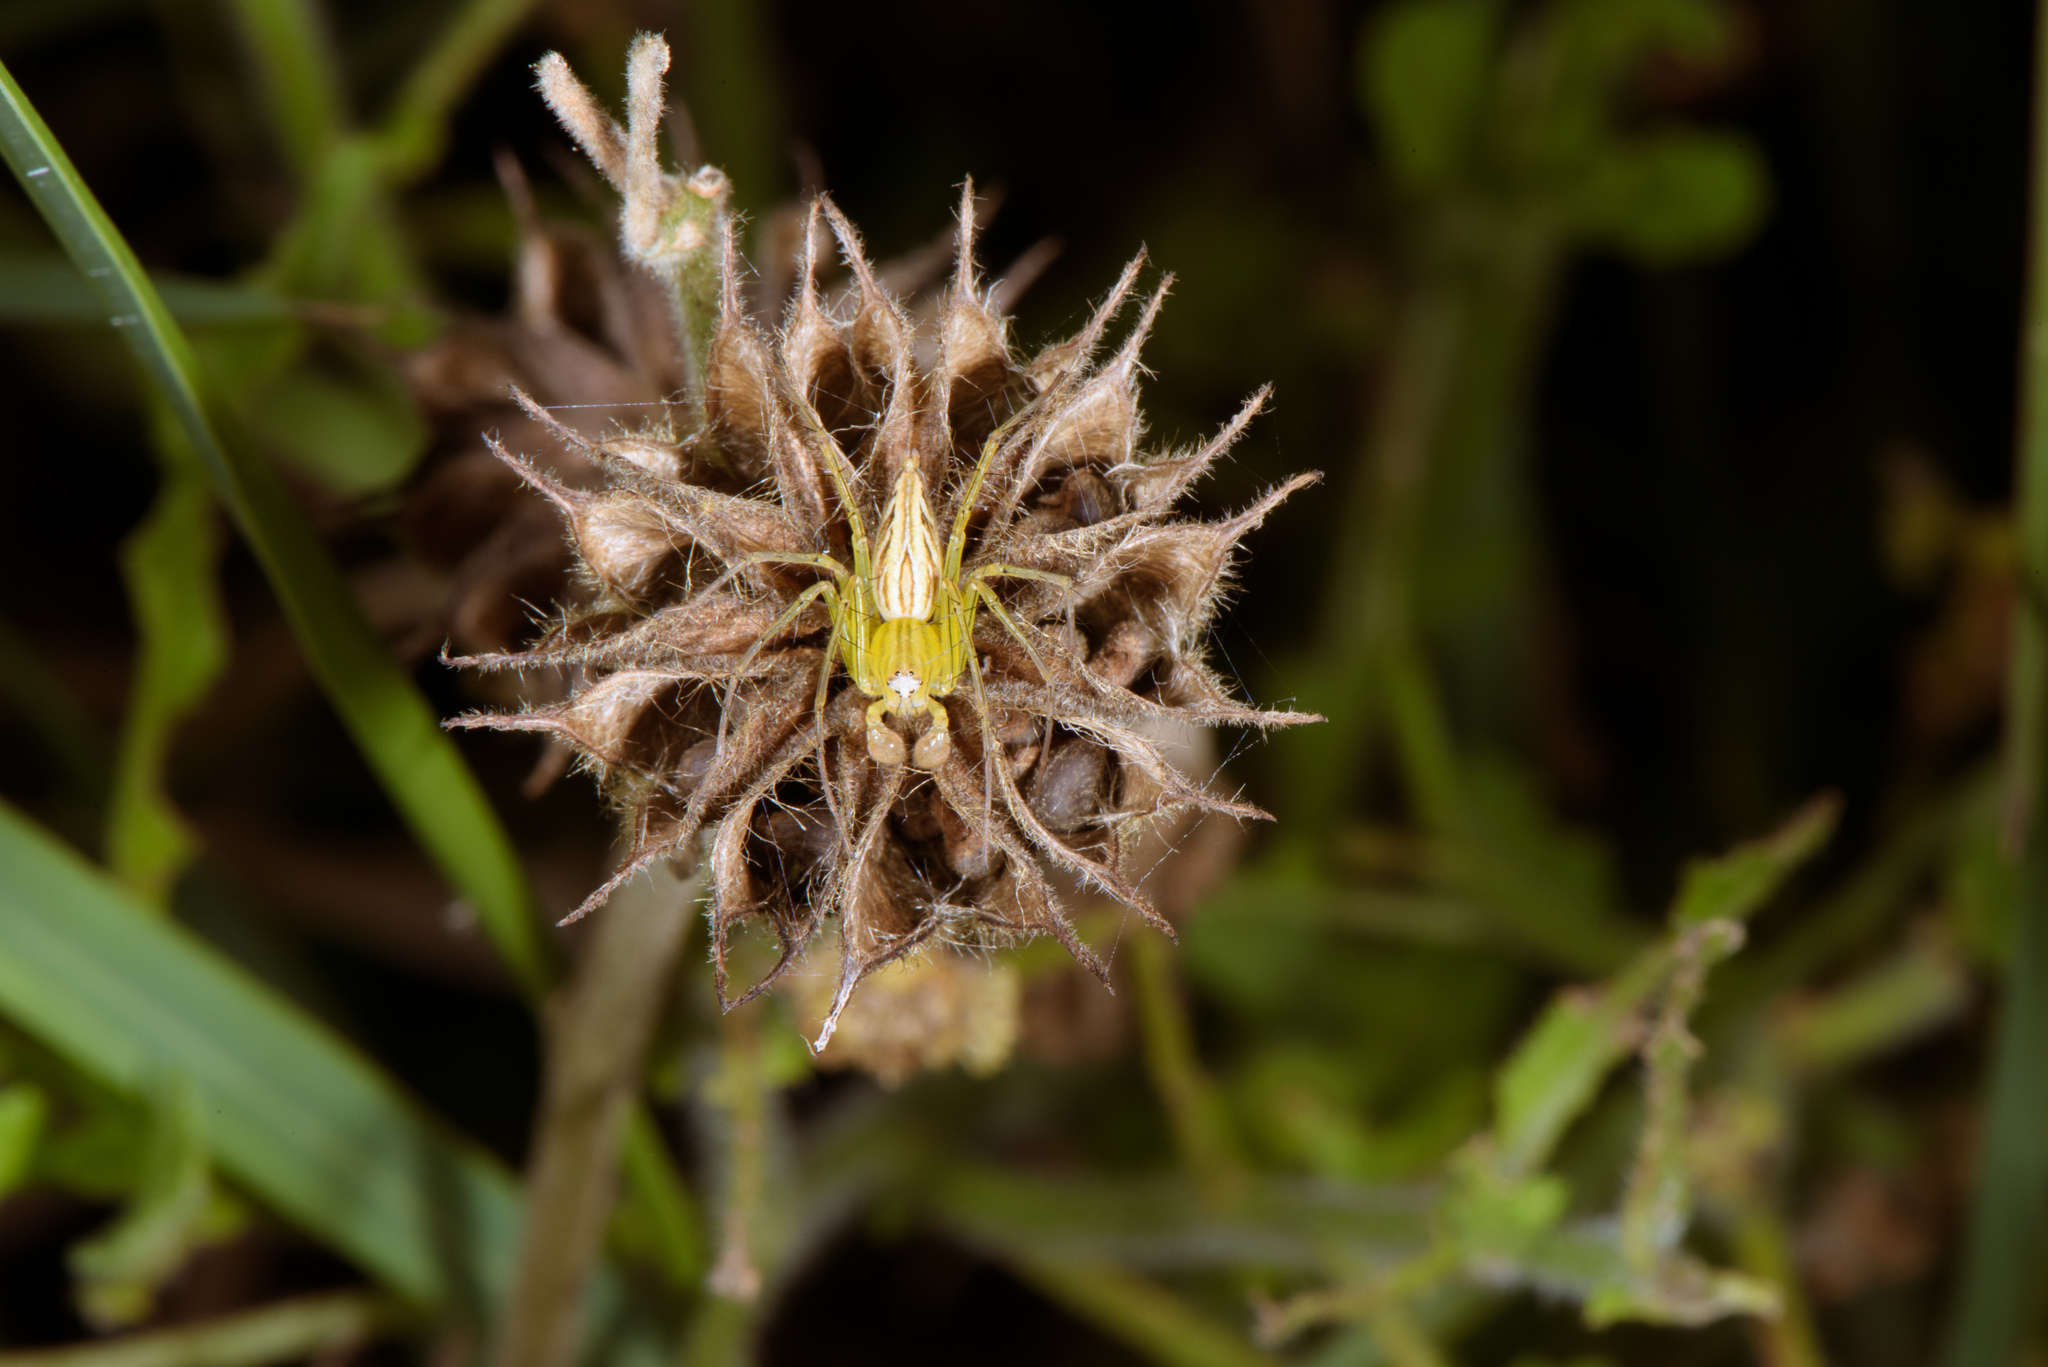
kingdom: Animalia
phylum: Arthropoda
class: Arachnida
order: Araneae
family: Oxyopidae
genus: Oxyopes
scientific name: Oxyopes sertatus
